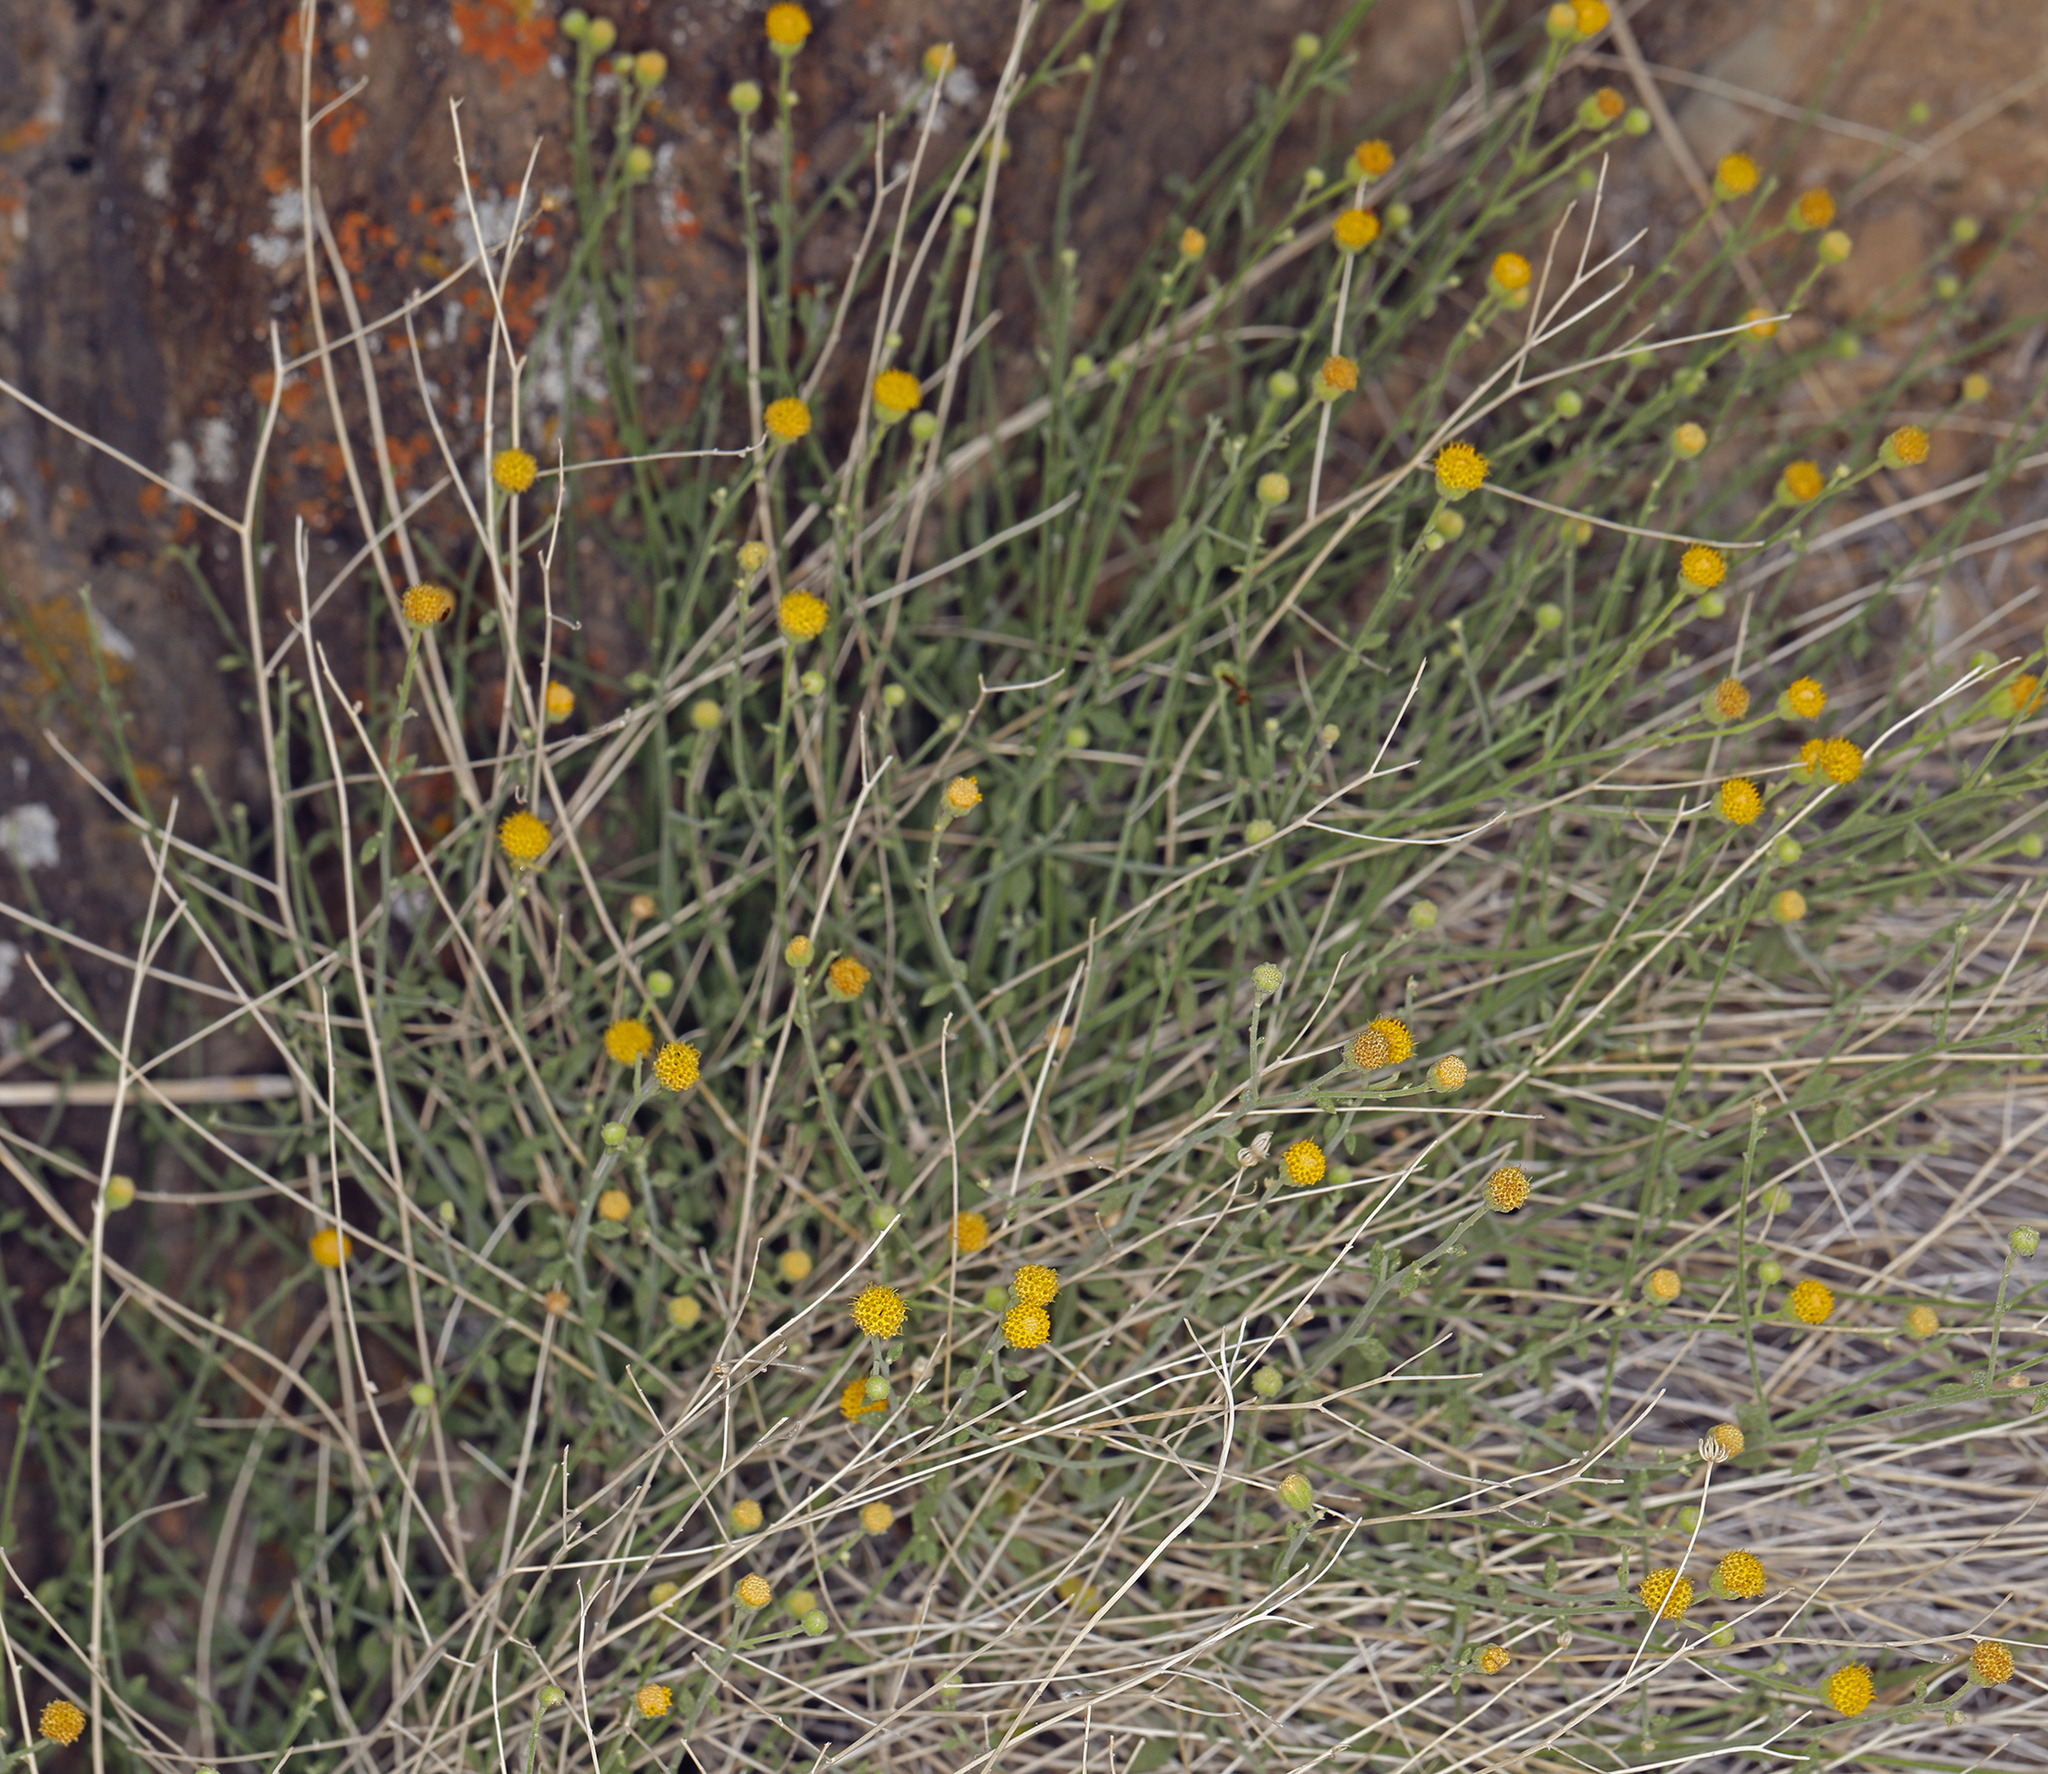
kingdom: Plantae
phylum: Tracheophyta
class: Magnoliopsida
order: Asterales
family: Asteraceae
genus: Laphamia
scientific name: Laphamia megalocephala
